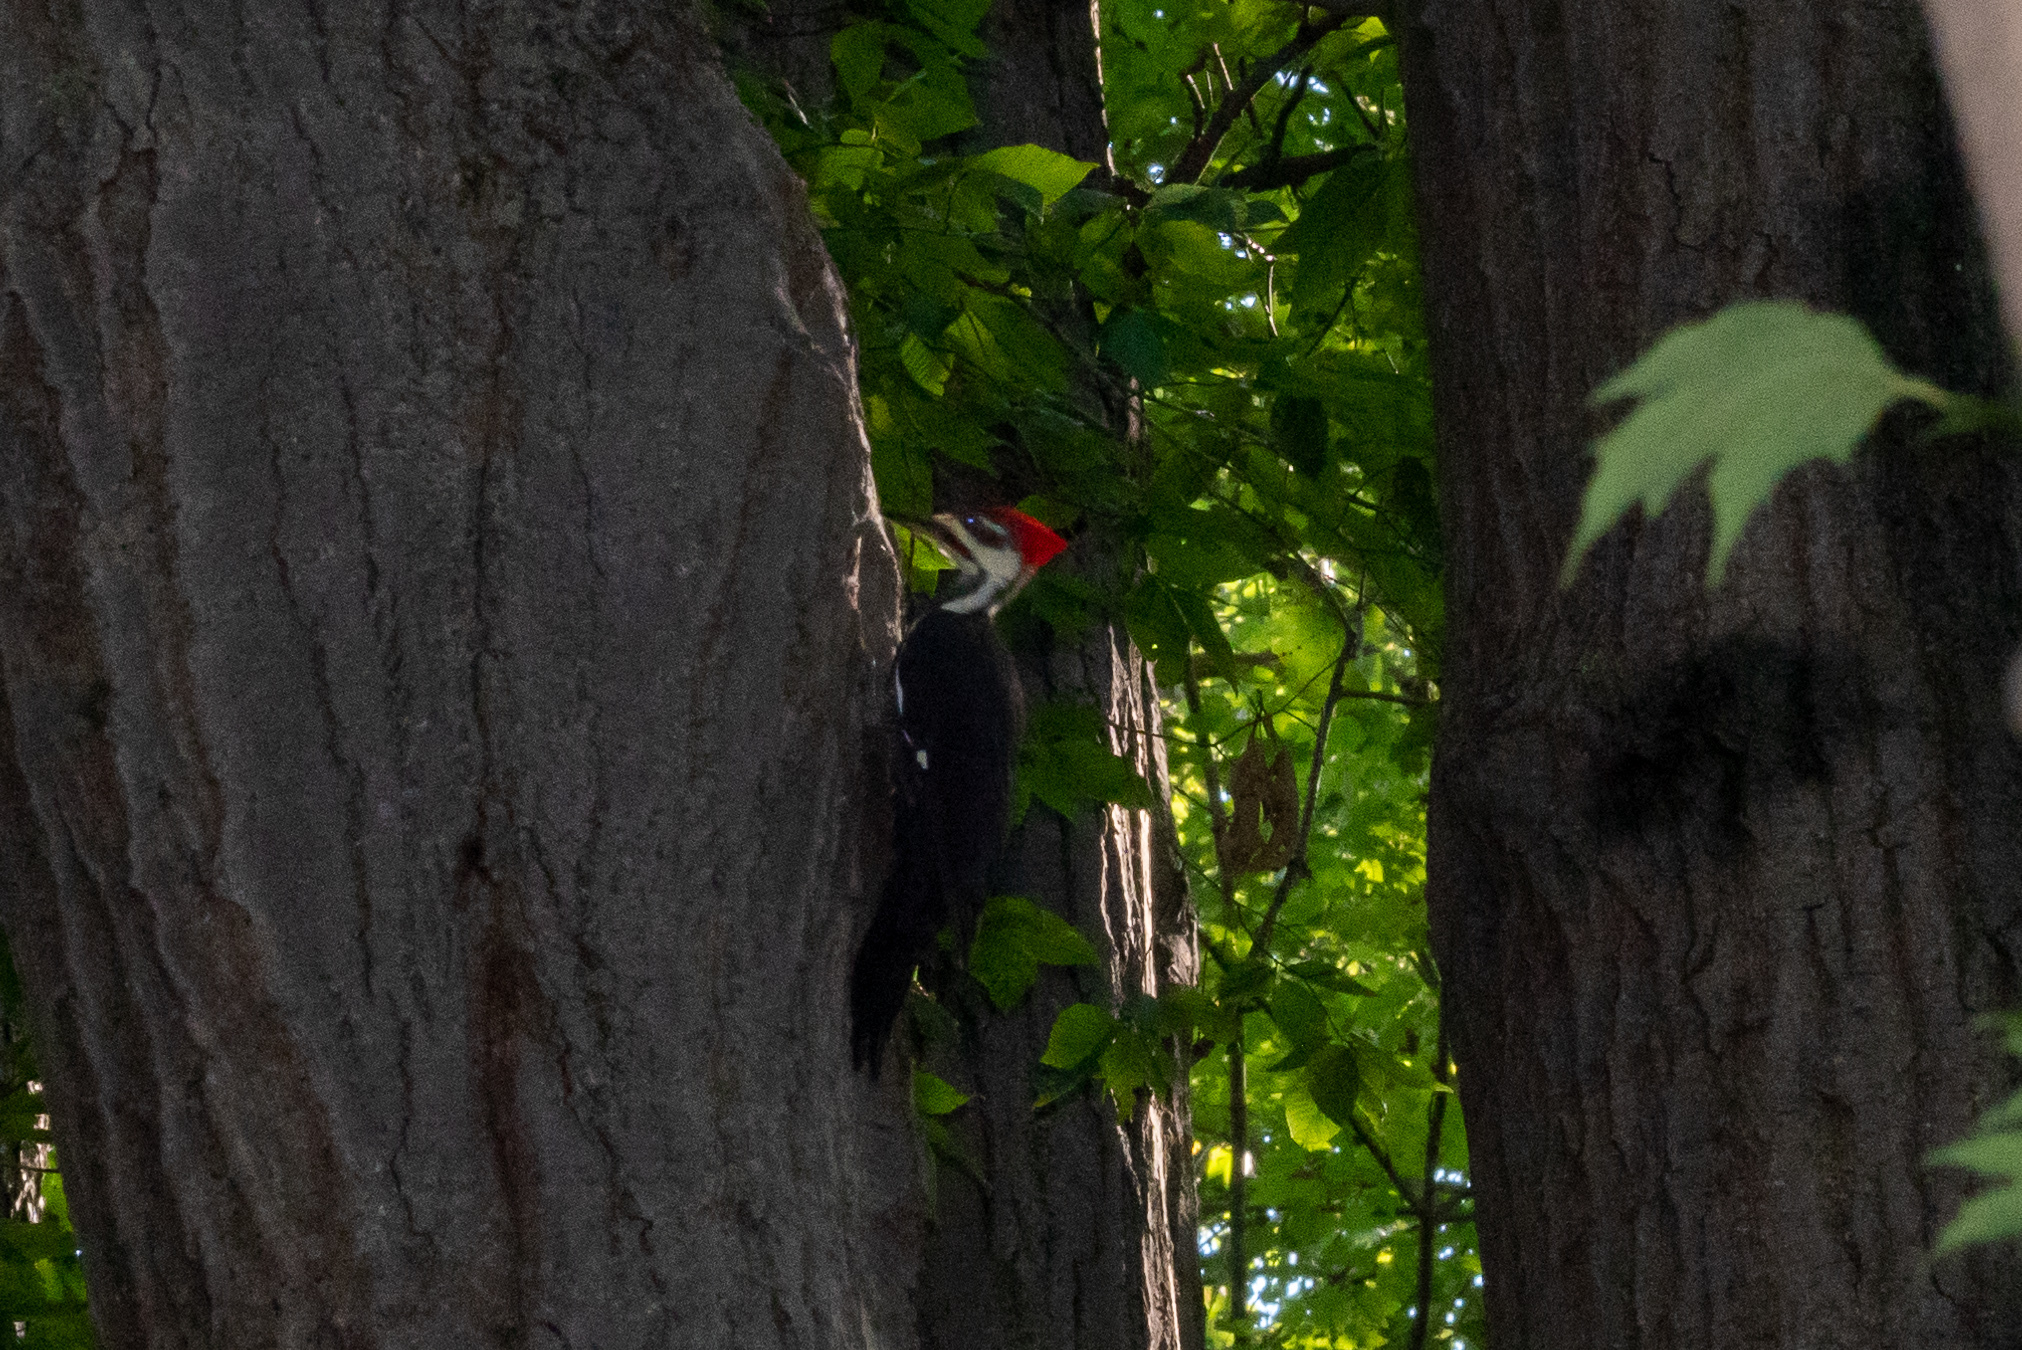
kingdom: Animalia
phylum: Chordata
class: Aves
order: Piciformes
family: Picidae
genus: Dryocopus
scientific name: Dryocopus pileatus
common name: Pileated woodpecker
